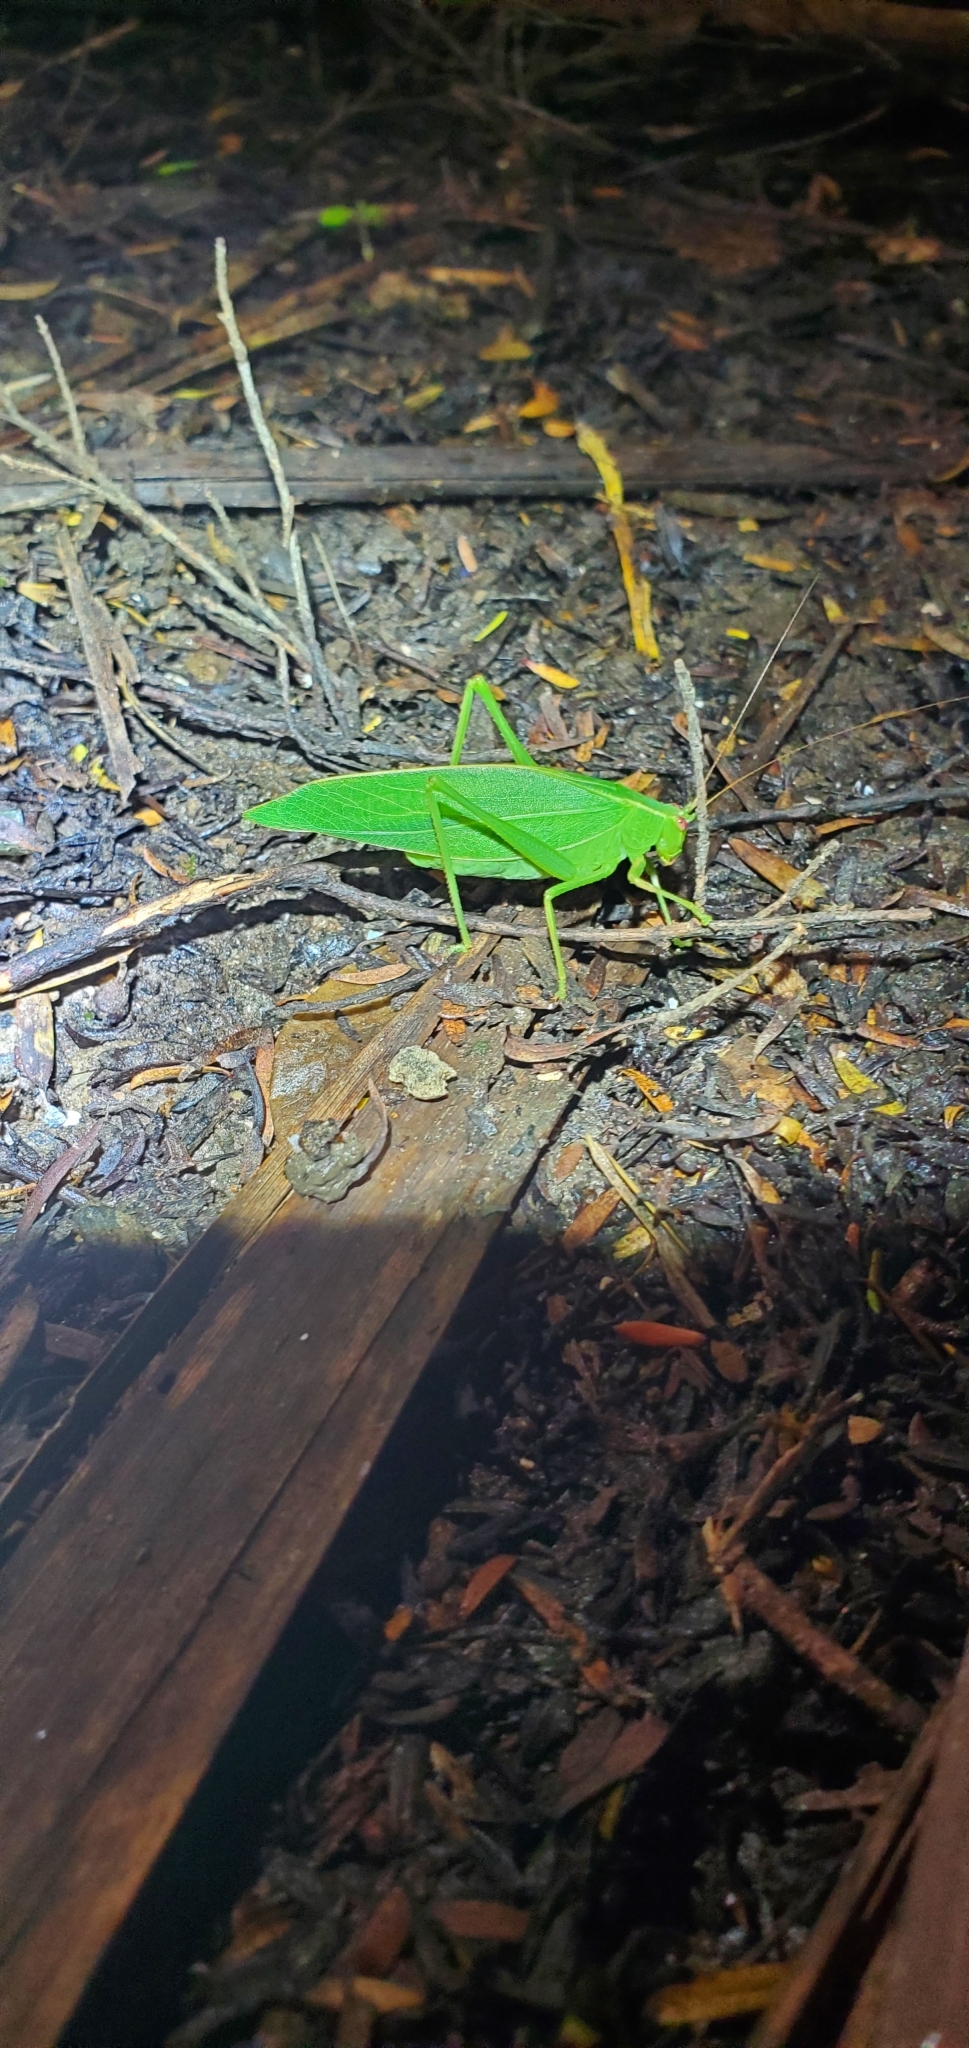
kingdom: Animalia
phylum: Arthropoda
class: Insecta
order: Orthoptera
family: Tettigoniidae
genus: Caedicia
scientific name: Caedicia simplex
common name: Common garden katydid
